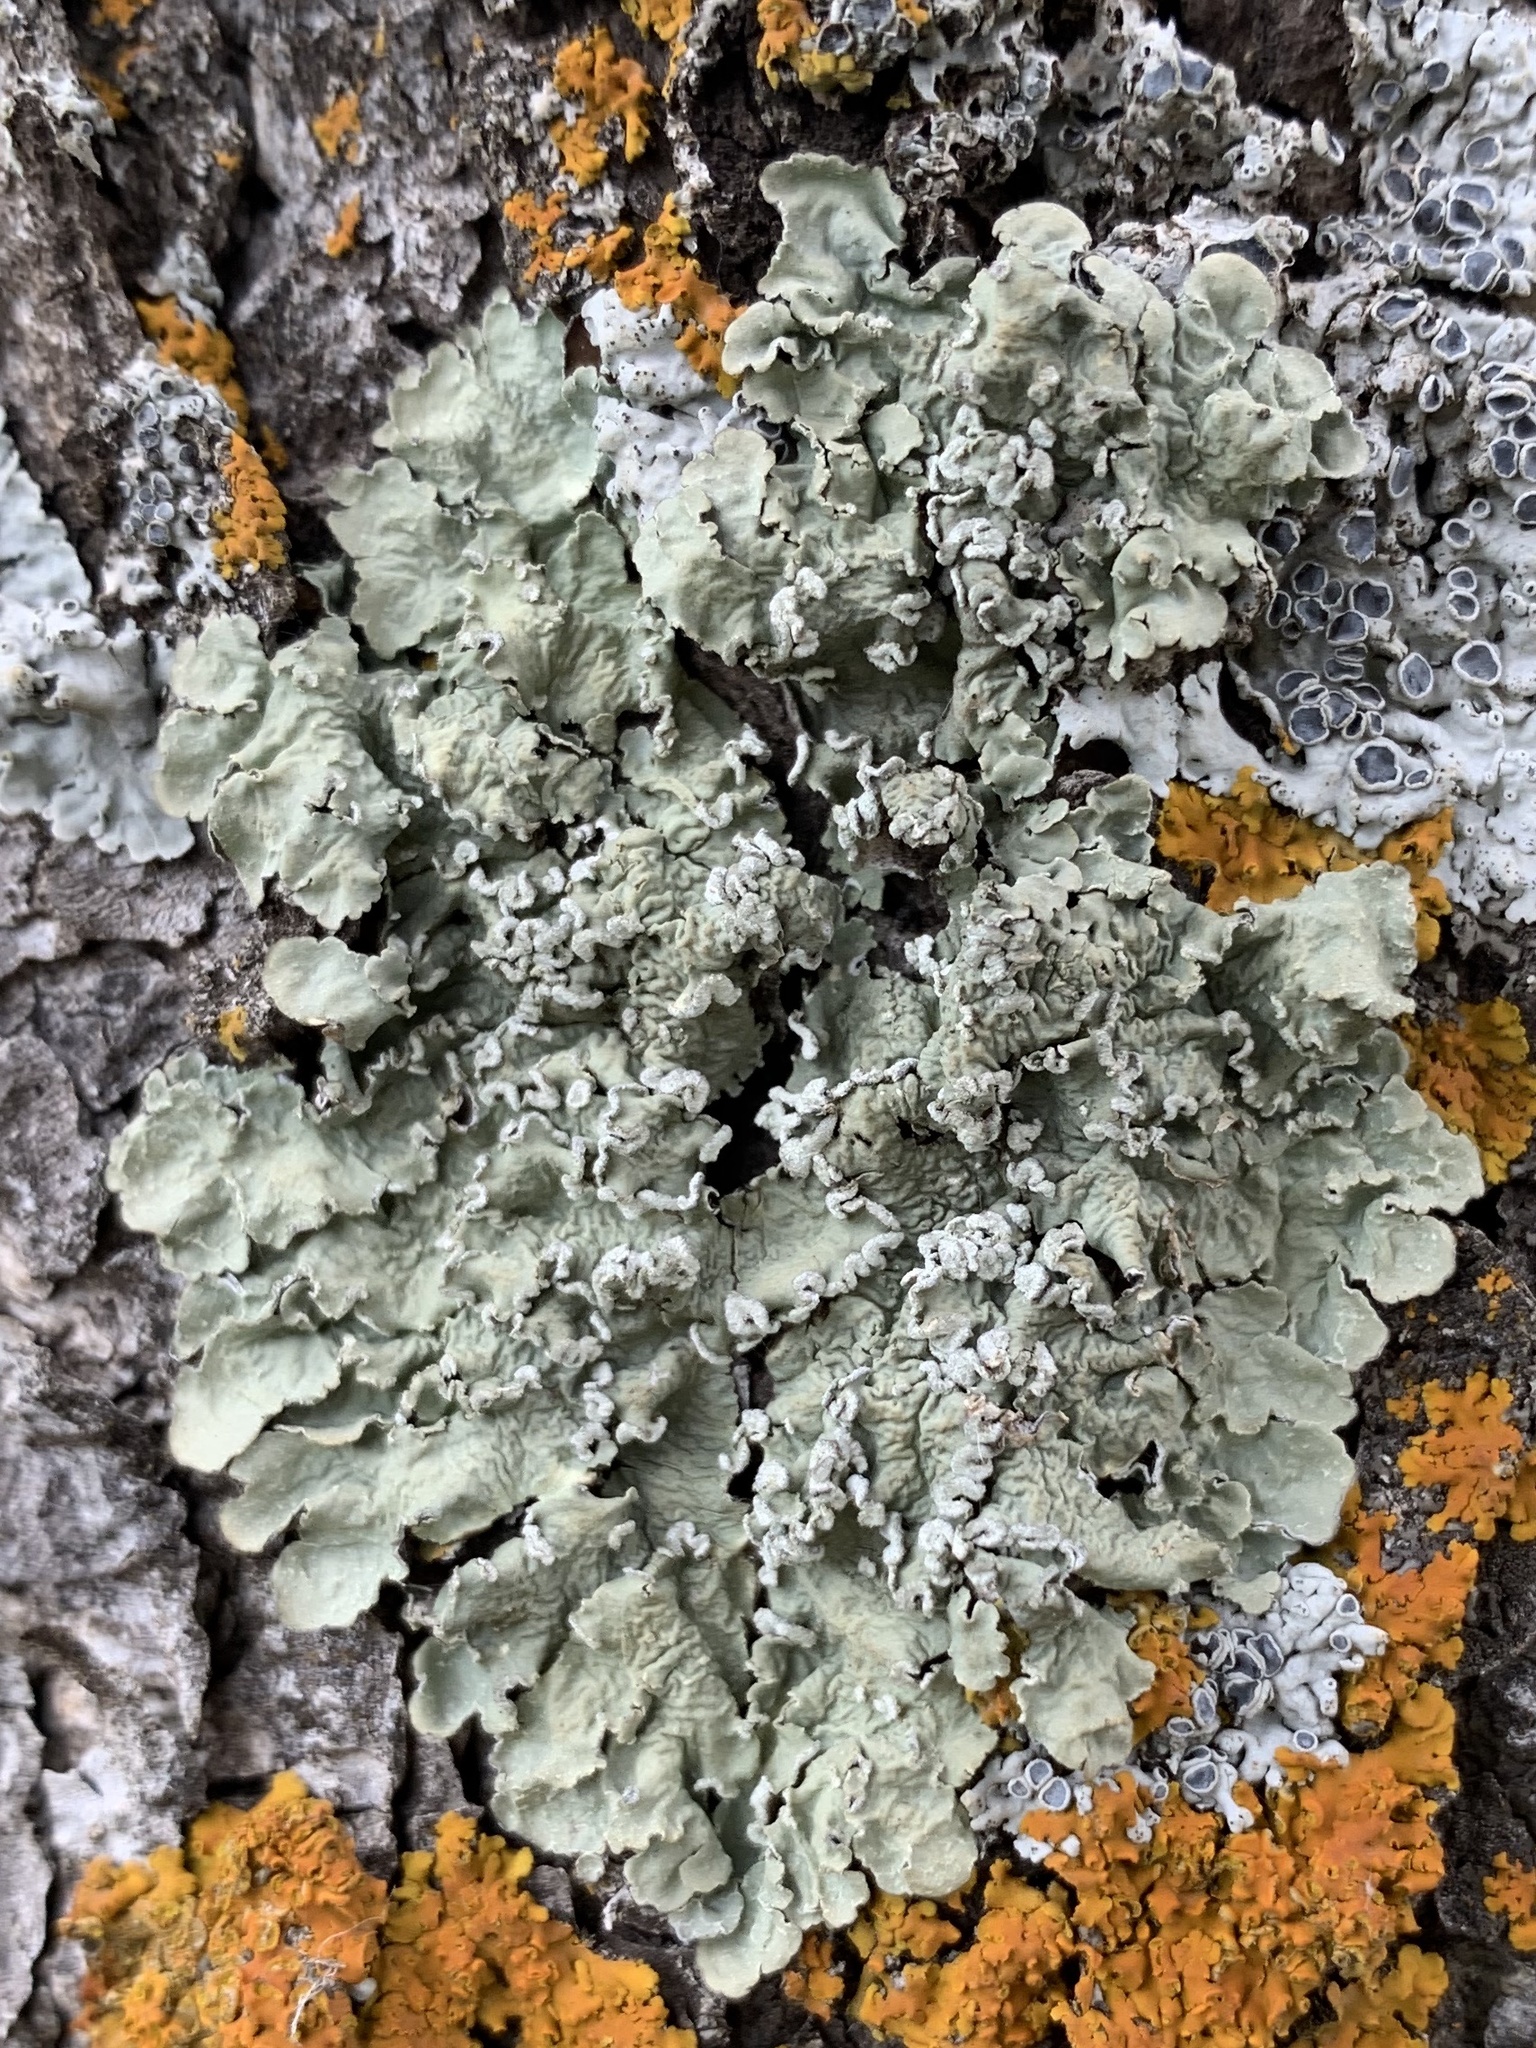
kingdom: Fungi
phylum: Ascomycota
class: Lecanoromycetes
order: Lecanorales
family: Parmeliaceae
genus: Flavopunctelia
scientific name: Flavopunctelia soredica
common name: Powder-edged speckled greenshield
